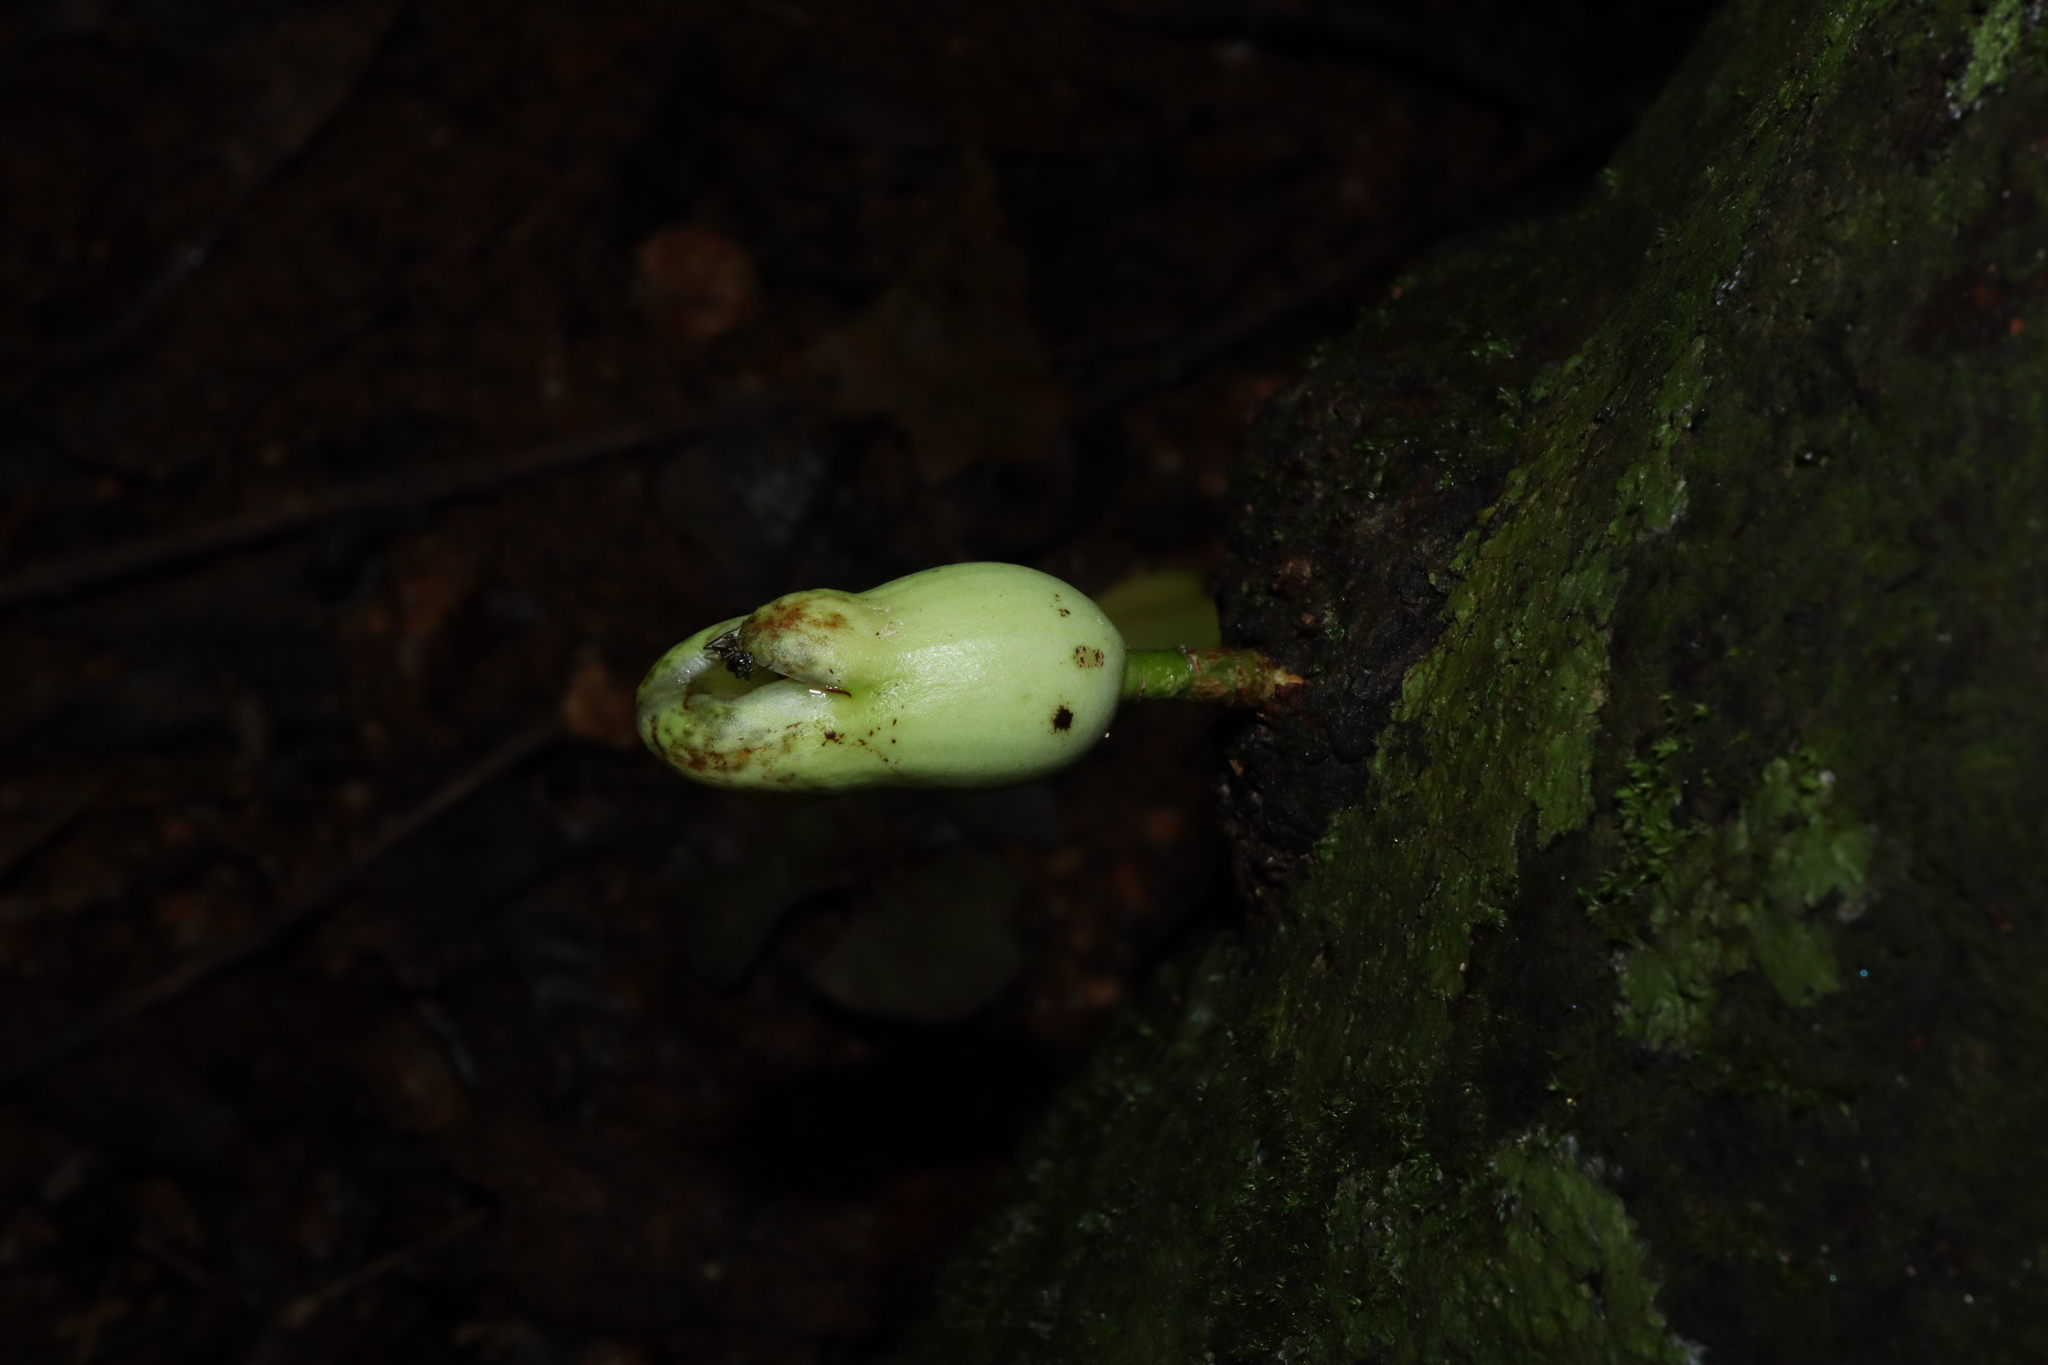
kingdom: Plantae
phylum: Tracheophyta
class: Magnoliopsida
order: Myrtales
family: Myrtaceae
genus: Syzygium
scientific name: Syzygium cormiflorum
